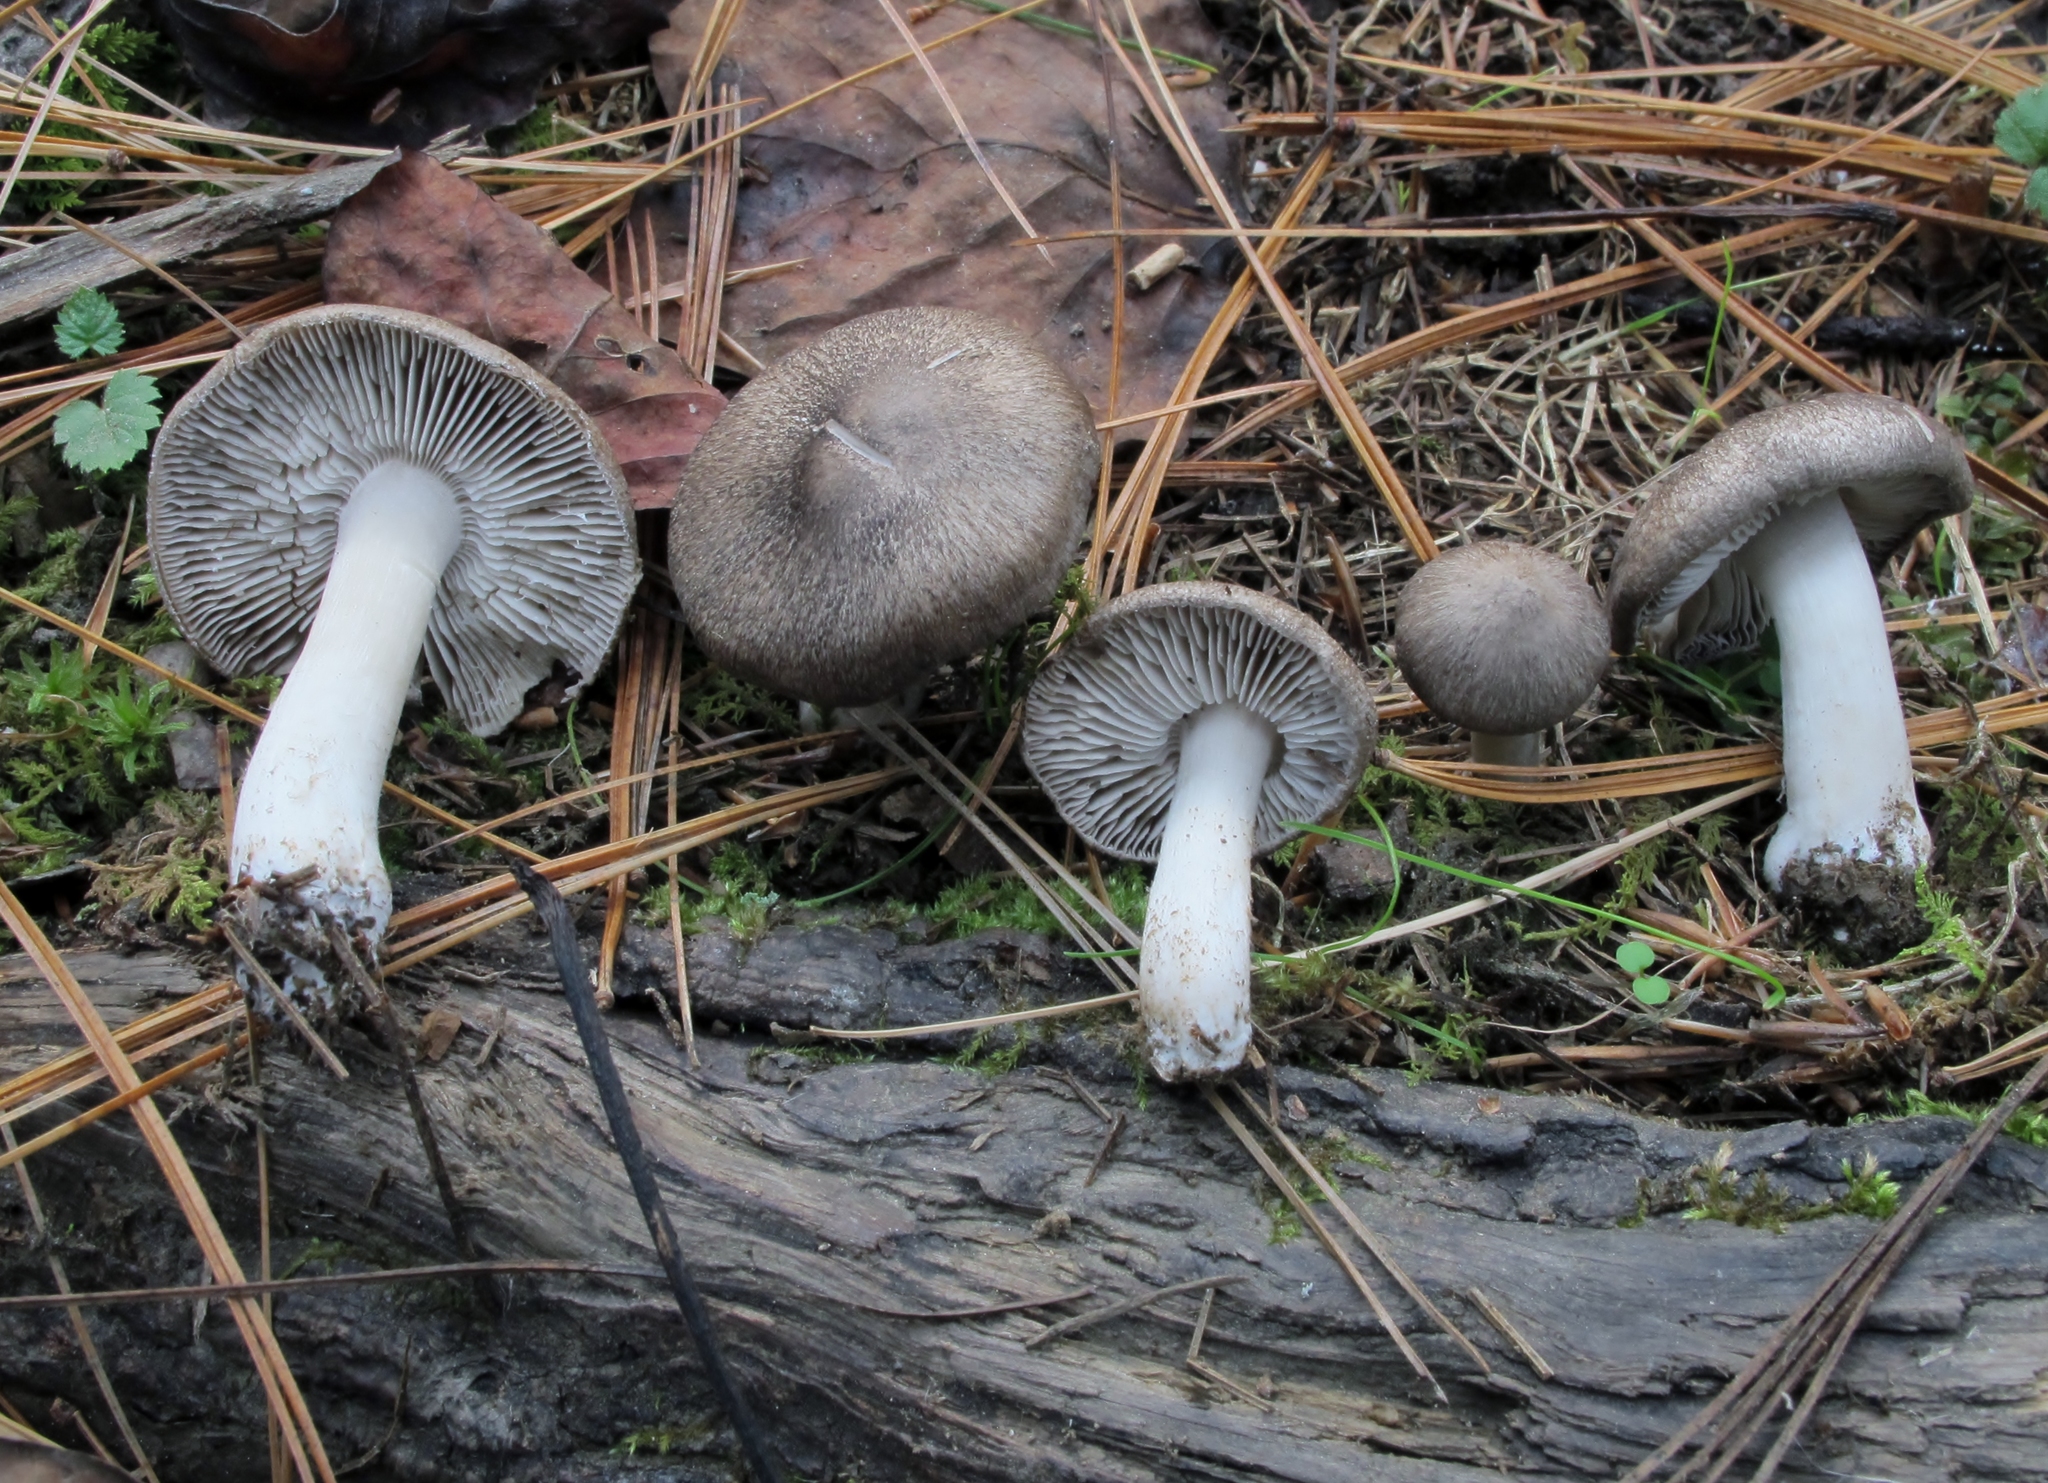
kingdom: Fungi
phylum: Basidiomycota
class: Agaricomycetes
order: Agaricales
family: Tricholomataceae
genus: Tricholoma
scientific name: Tricholoma terreum
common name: Grey knight
